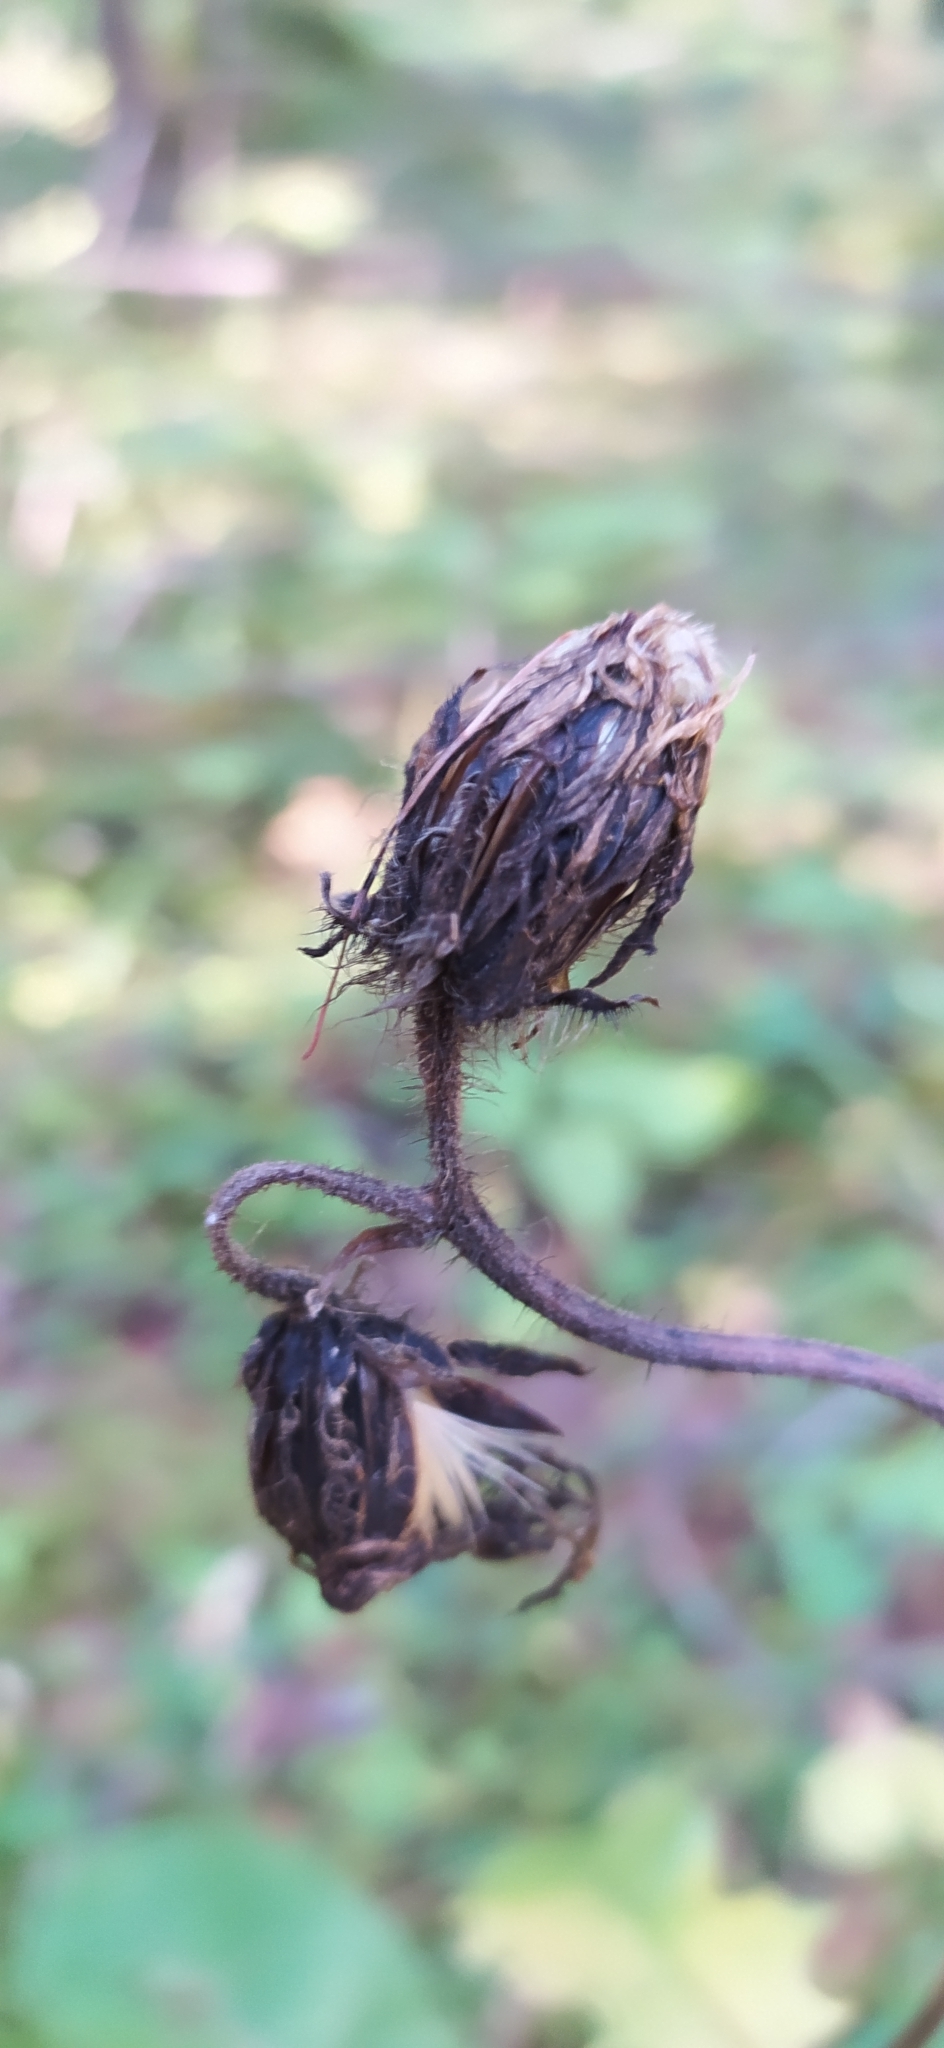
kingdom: Plantae
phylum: Tracheophyta
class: Magnoliopsida
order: Asterales
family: Asteraceae
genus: Crepis
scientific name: Crepis sibirica
